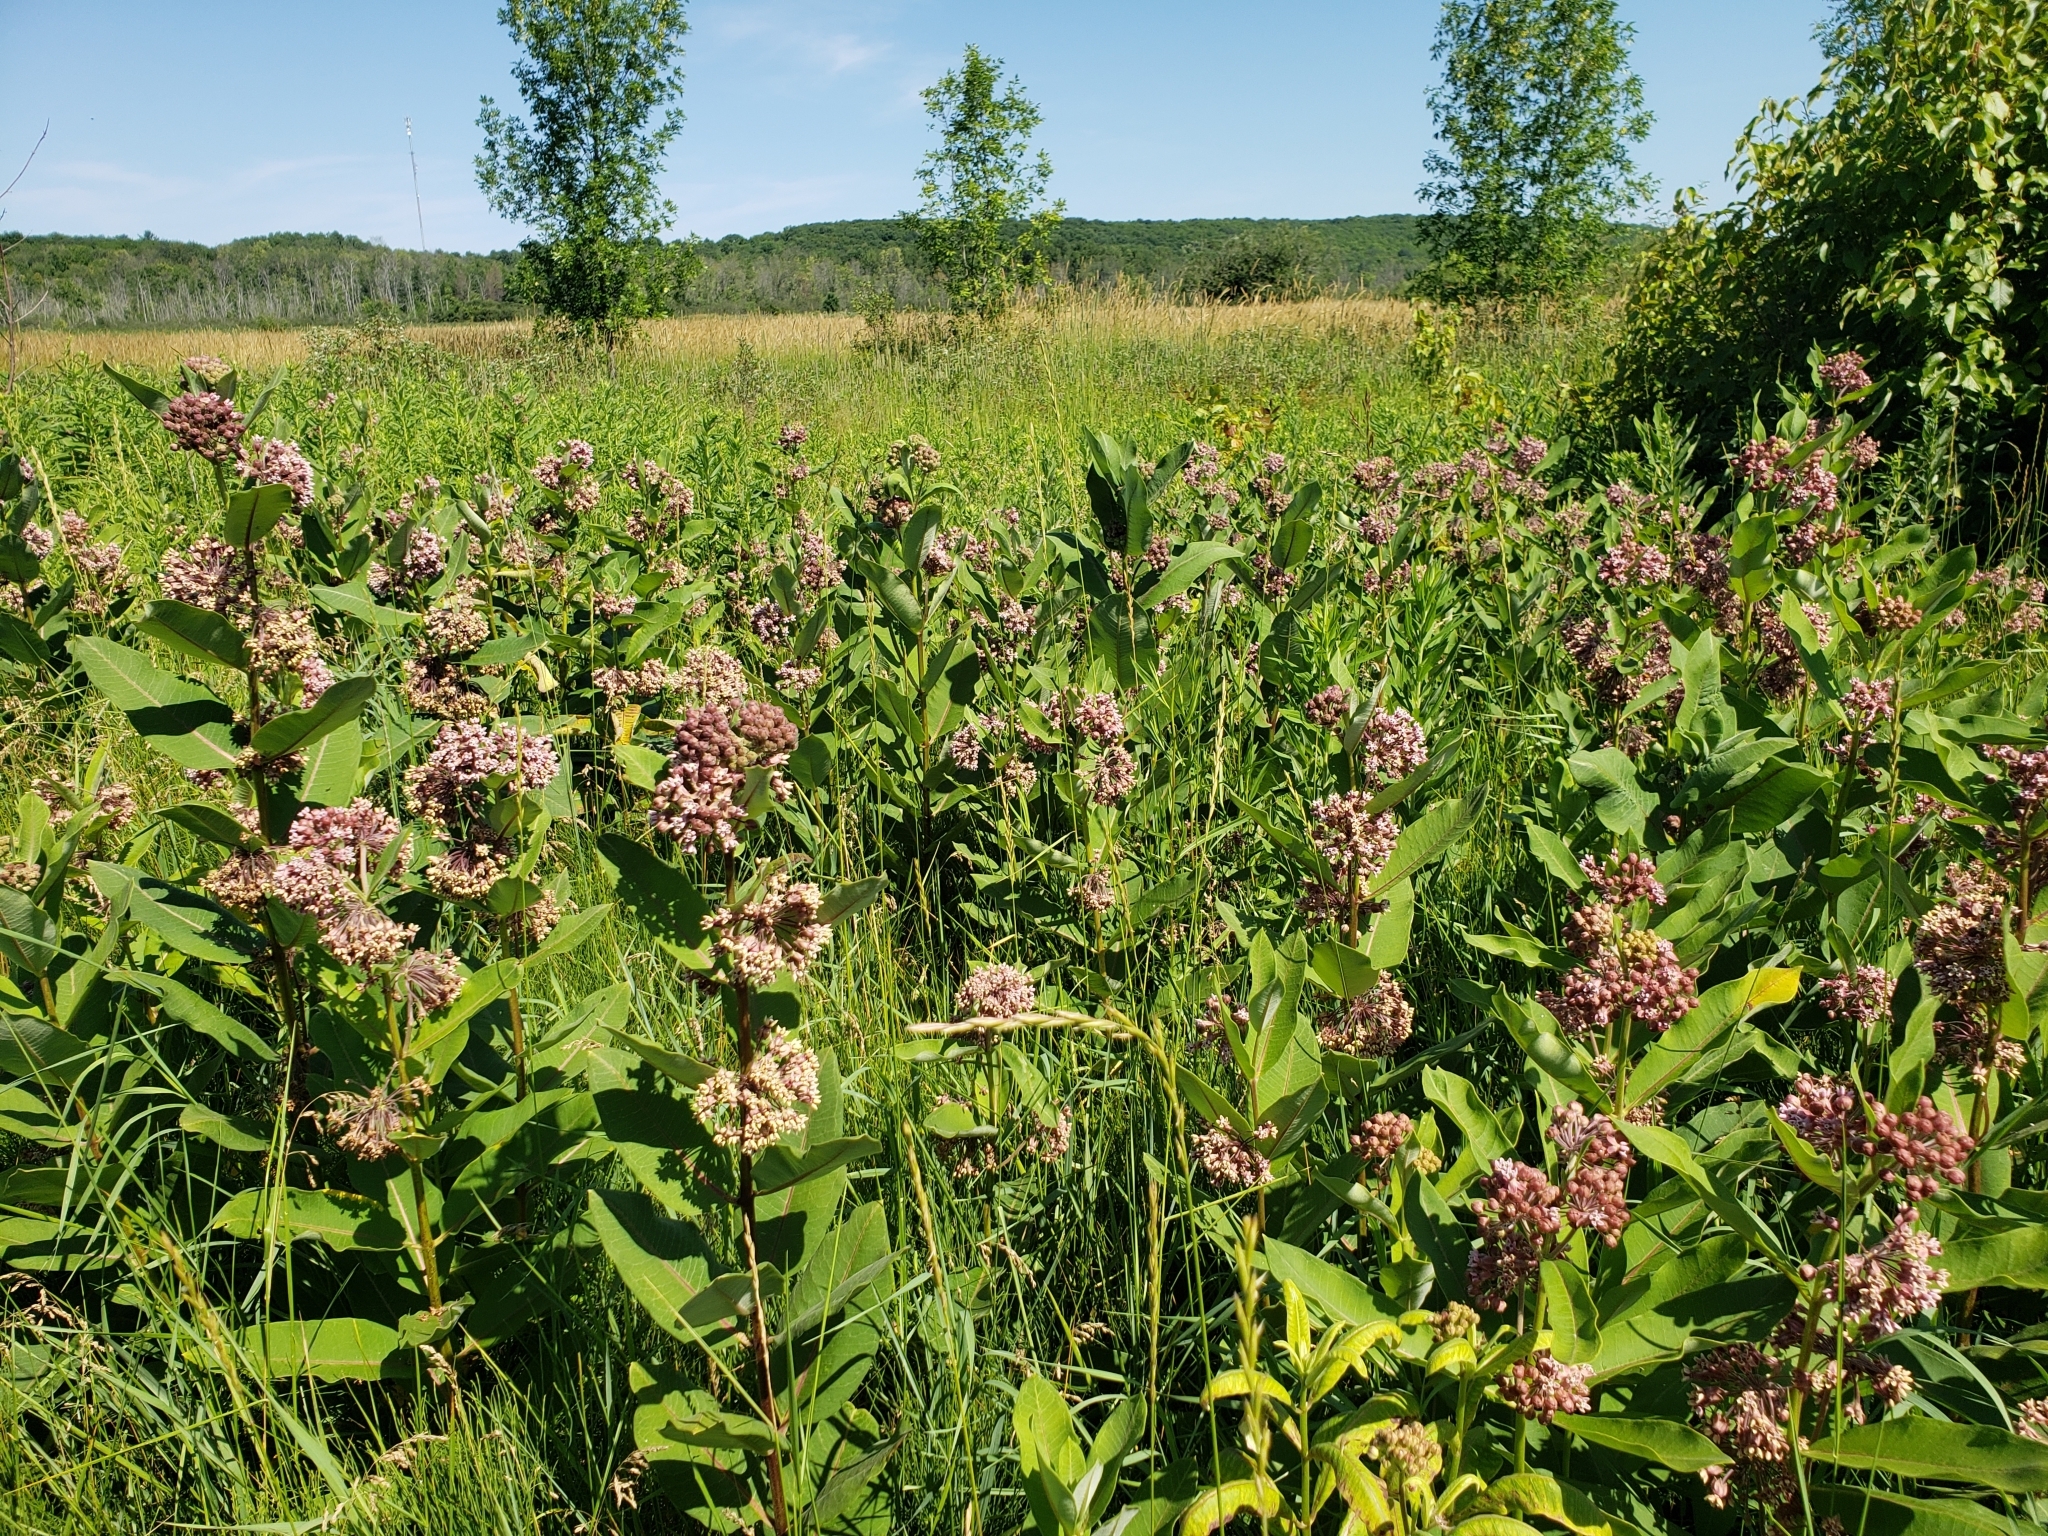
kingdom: Plantae
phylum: Tracheophyta
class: Magnoliopsida
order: Gentianales
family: Apocynaceae
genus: Asclepias
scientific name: Asclepias syriaca
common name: Common milkweed
